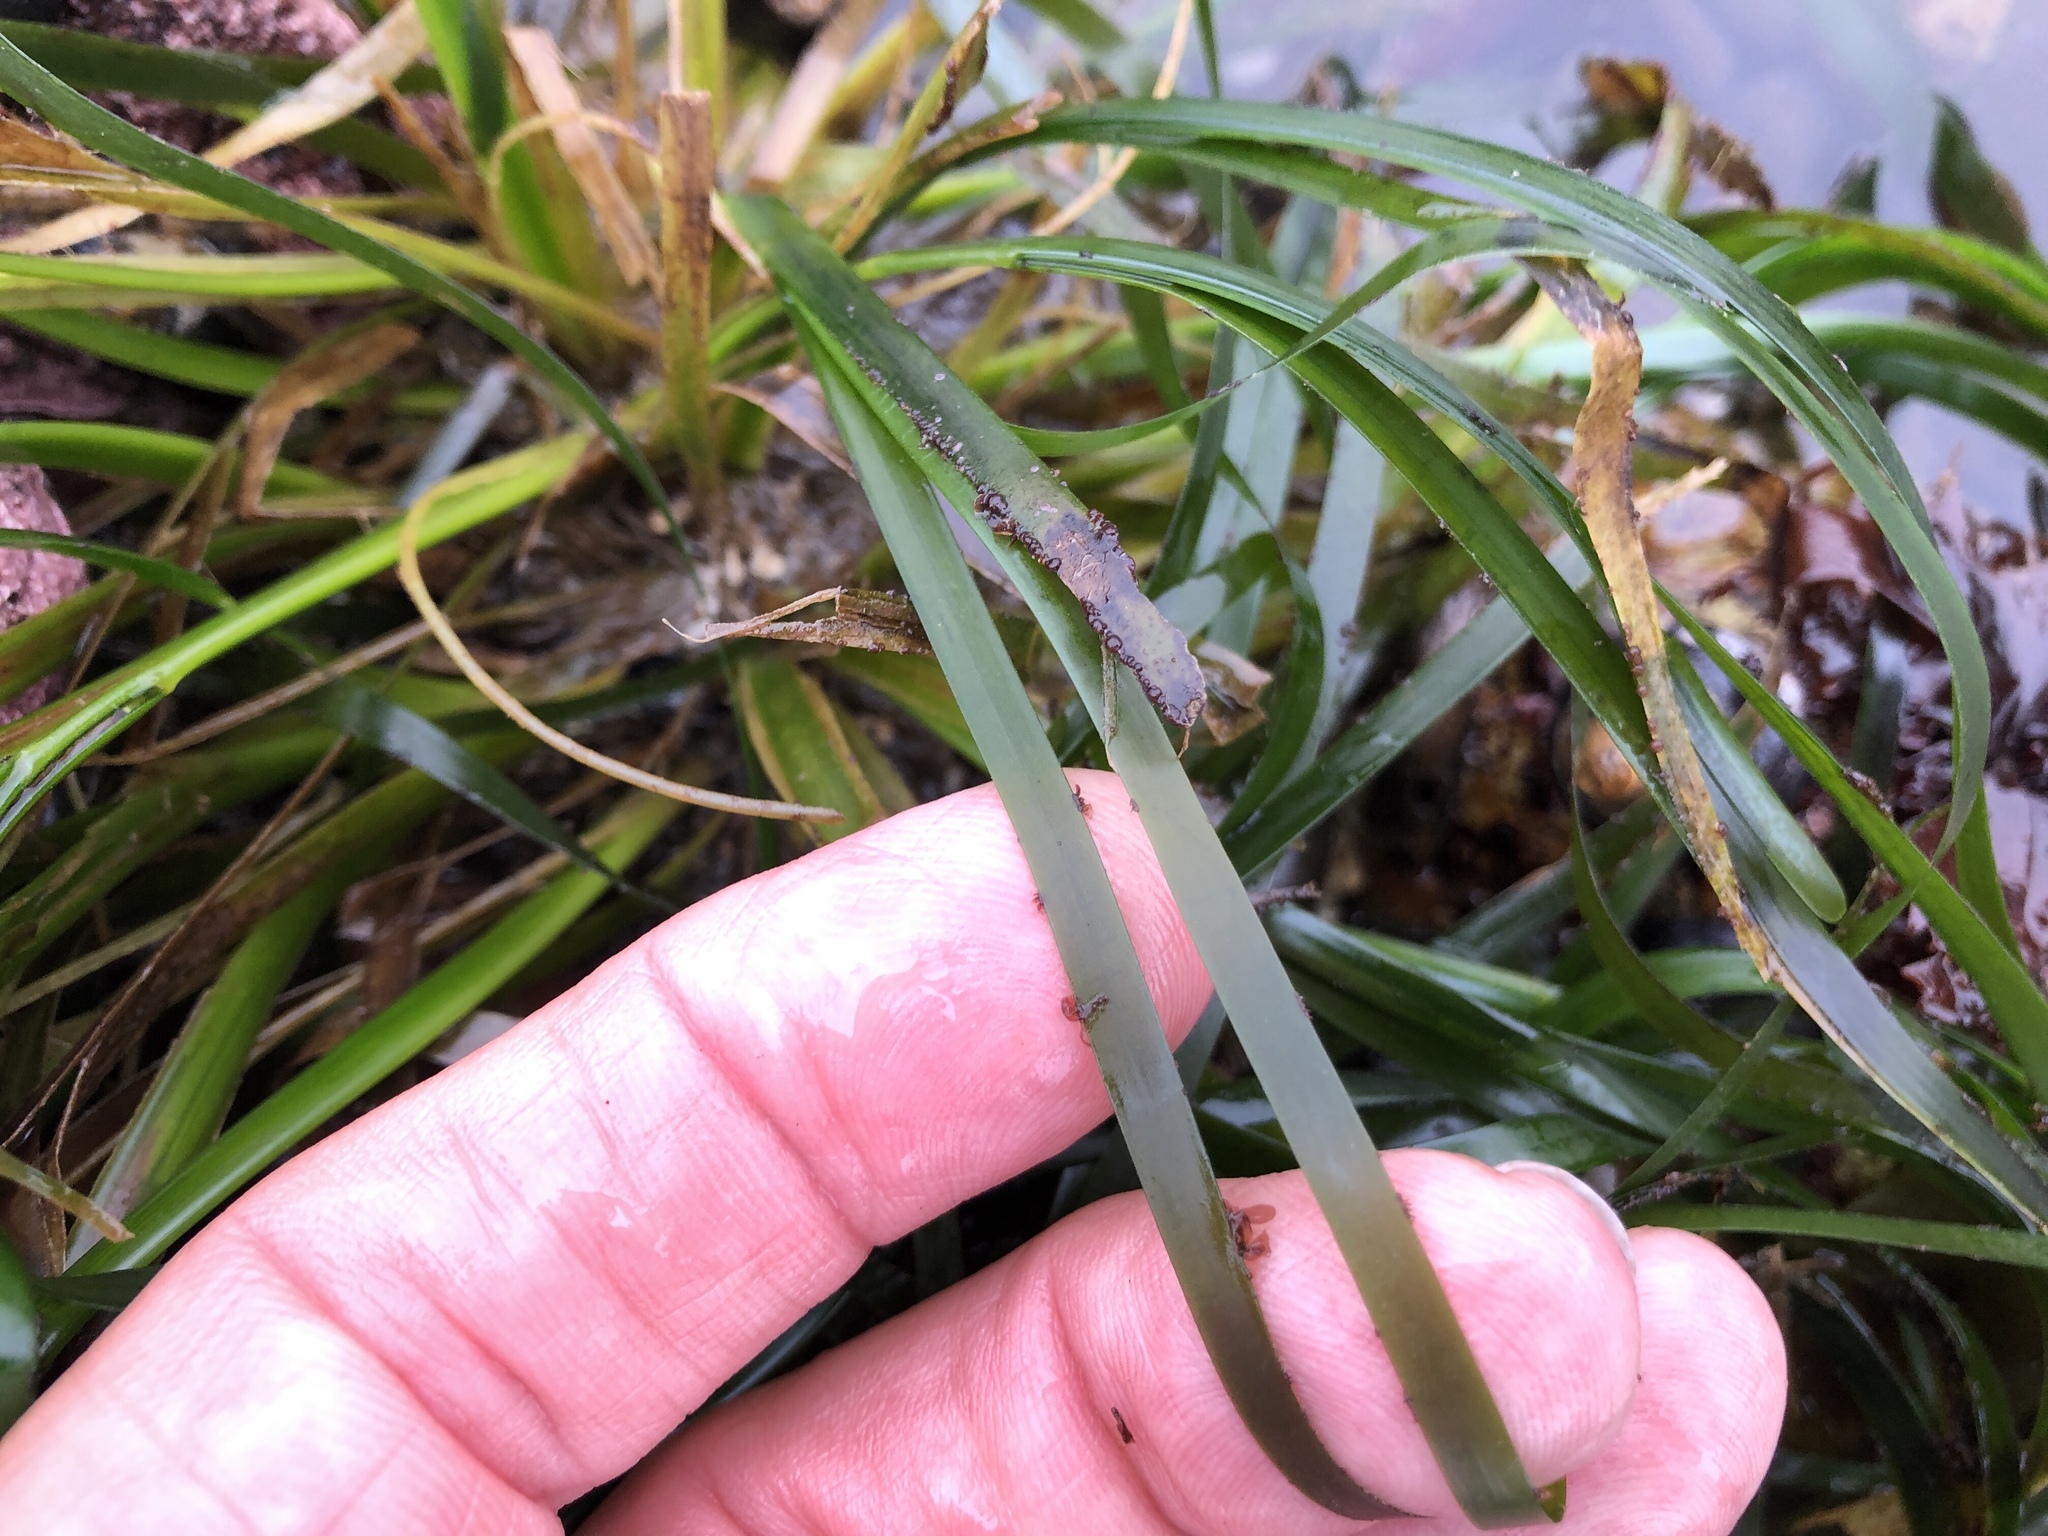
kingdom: Plantae
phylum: Tracheophyta
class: Liliopsida
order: Alismatales
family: Zosteraceae
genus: Phyllospadix
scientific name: Phyllospadix scouleri
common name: Species code: ps
